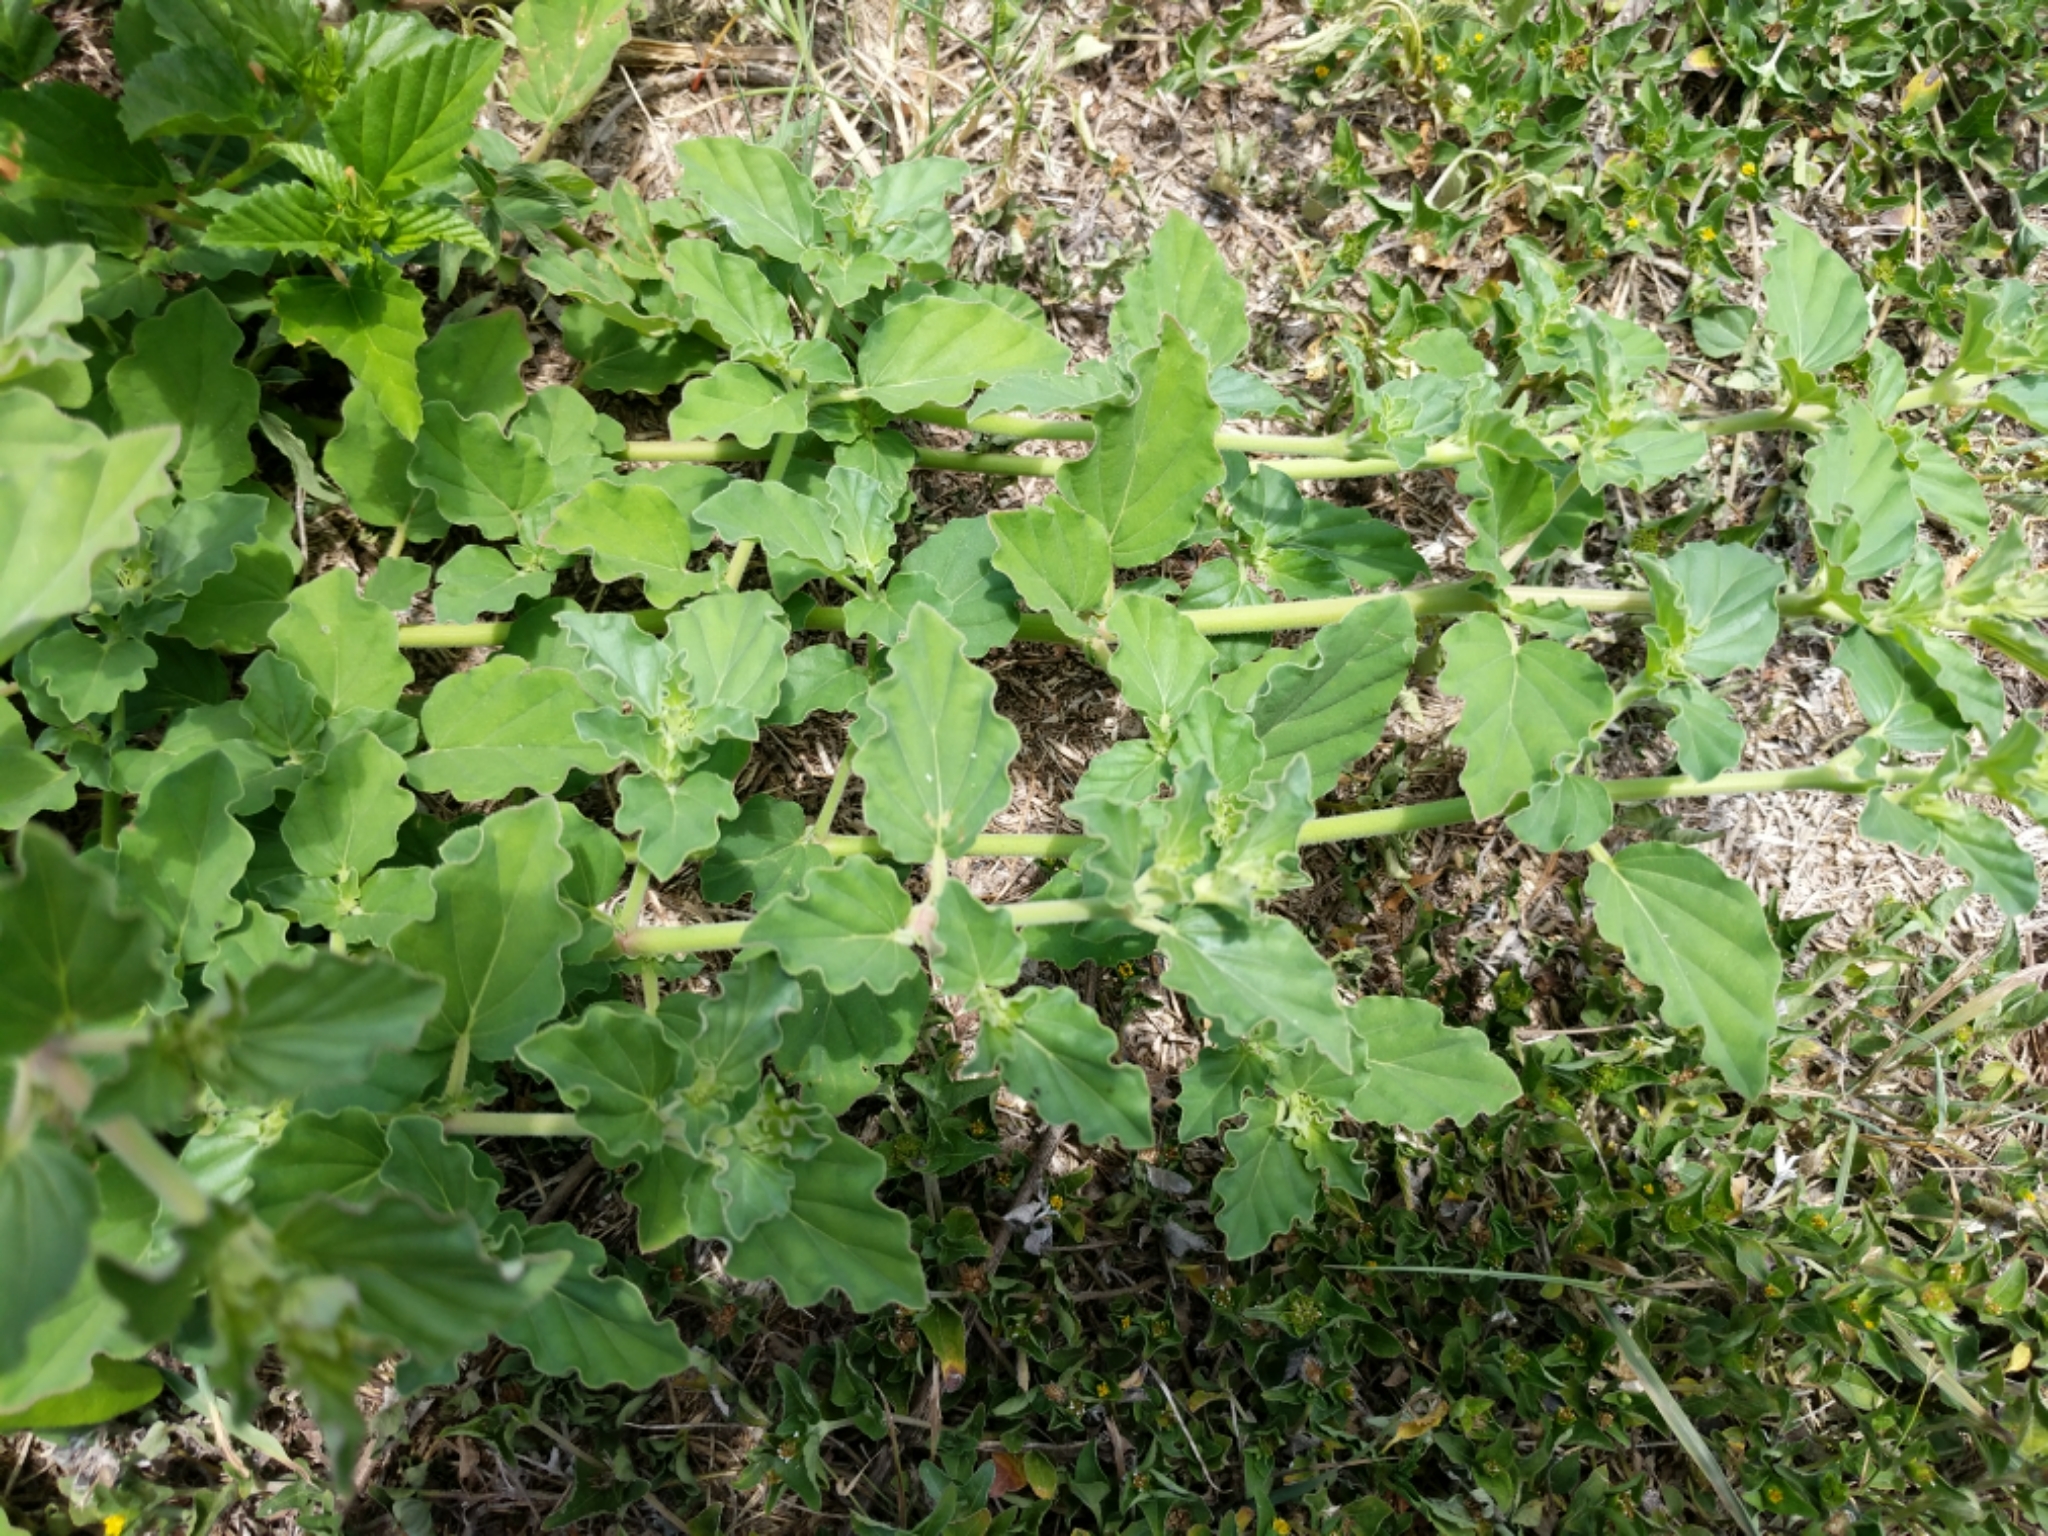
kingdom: Plantae
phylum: Tracheophyta
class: Magnoliopsida
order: Caryophyllales
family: Nyctaginaceae
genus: Boerhavia
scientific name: Boerhavia coccinea
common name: Scarlet spiderling
